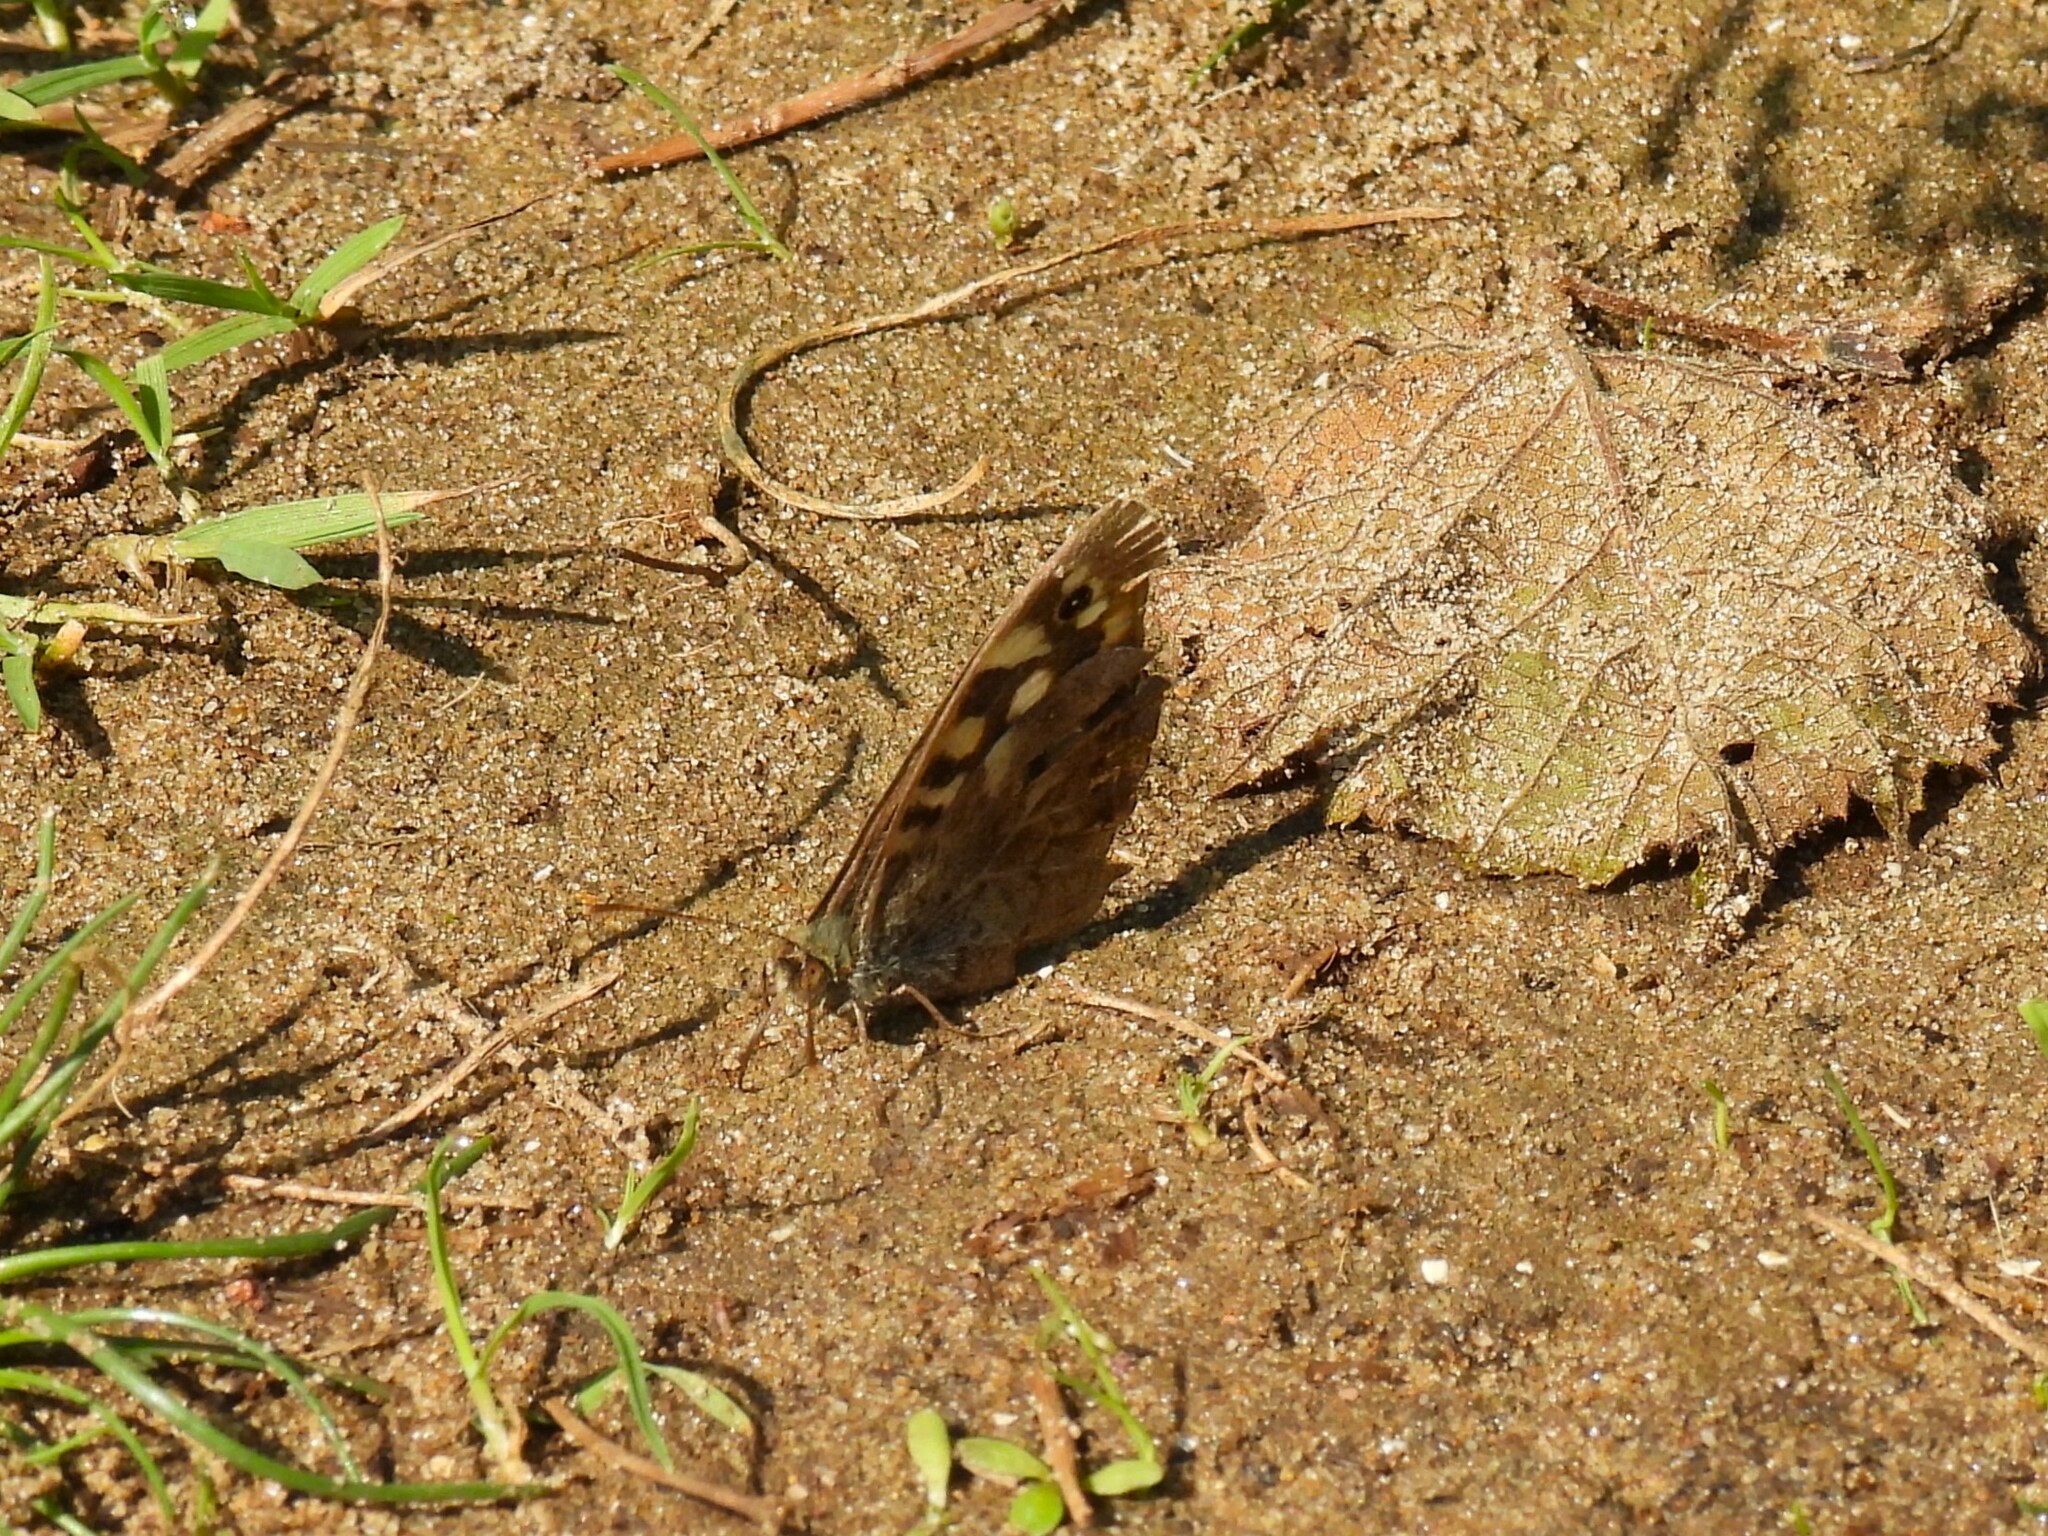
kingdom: Animalia
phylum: Arthropoda
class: Insecta
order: Lepidoptera
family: Nymphalidae
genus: Pararge
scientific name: Pararge aegeria
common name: Speckled wood
